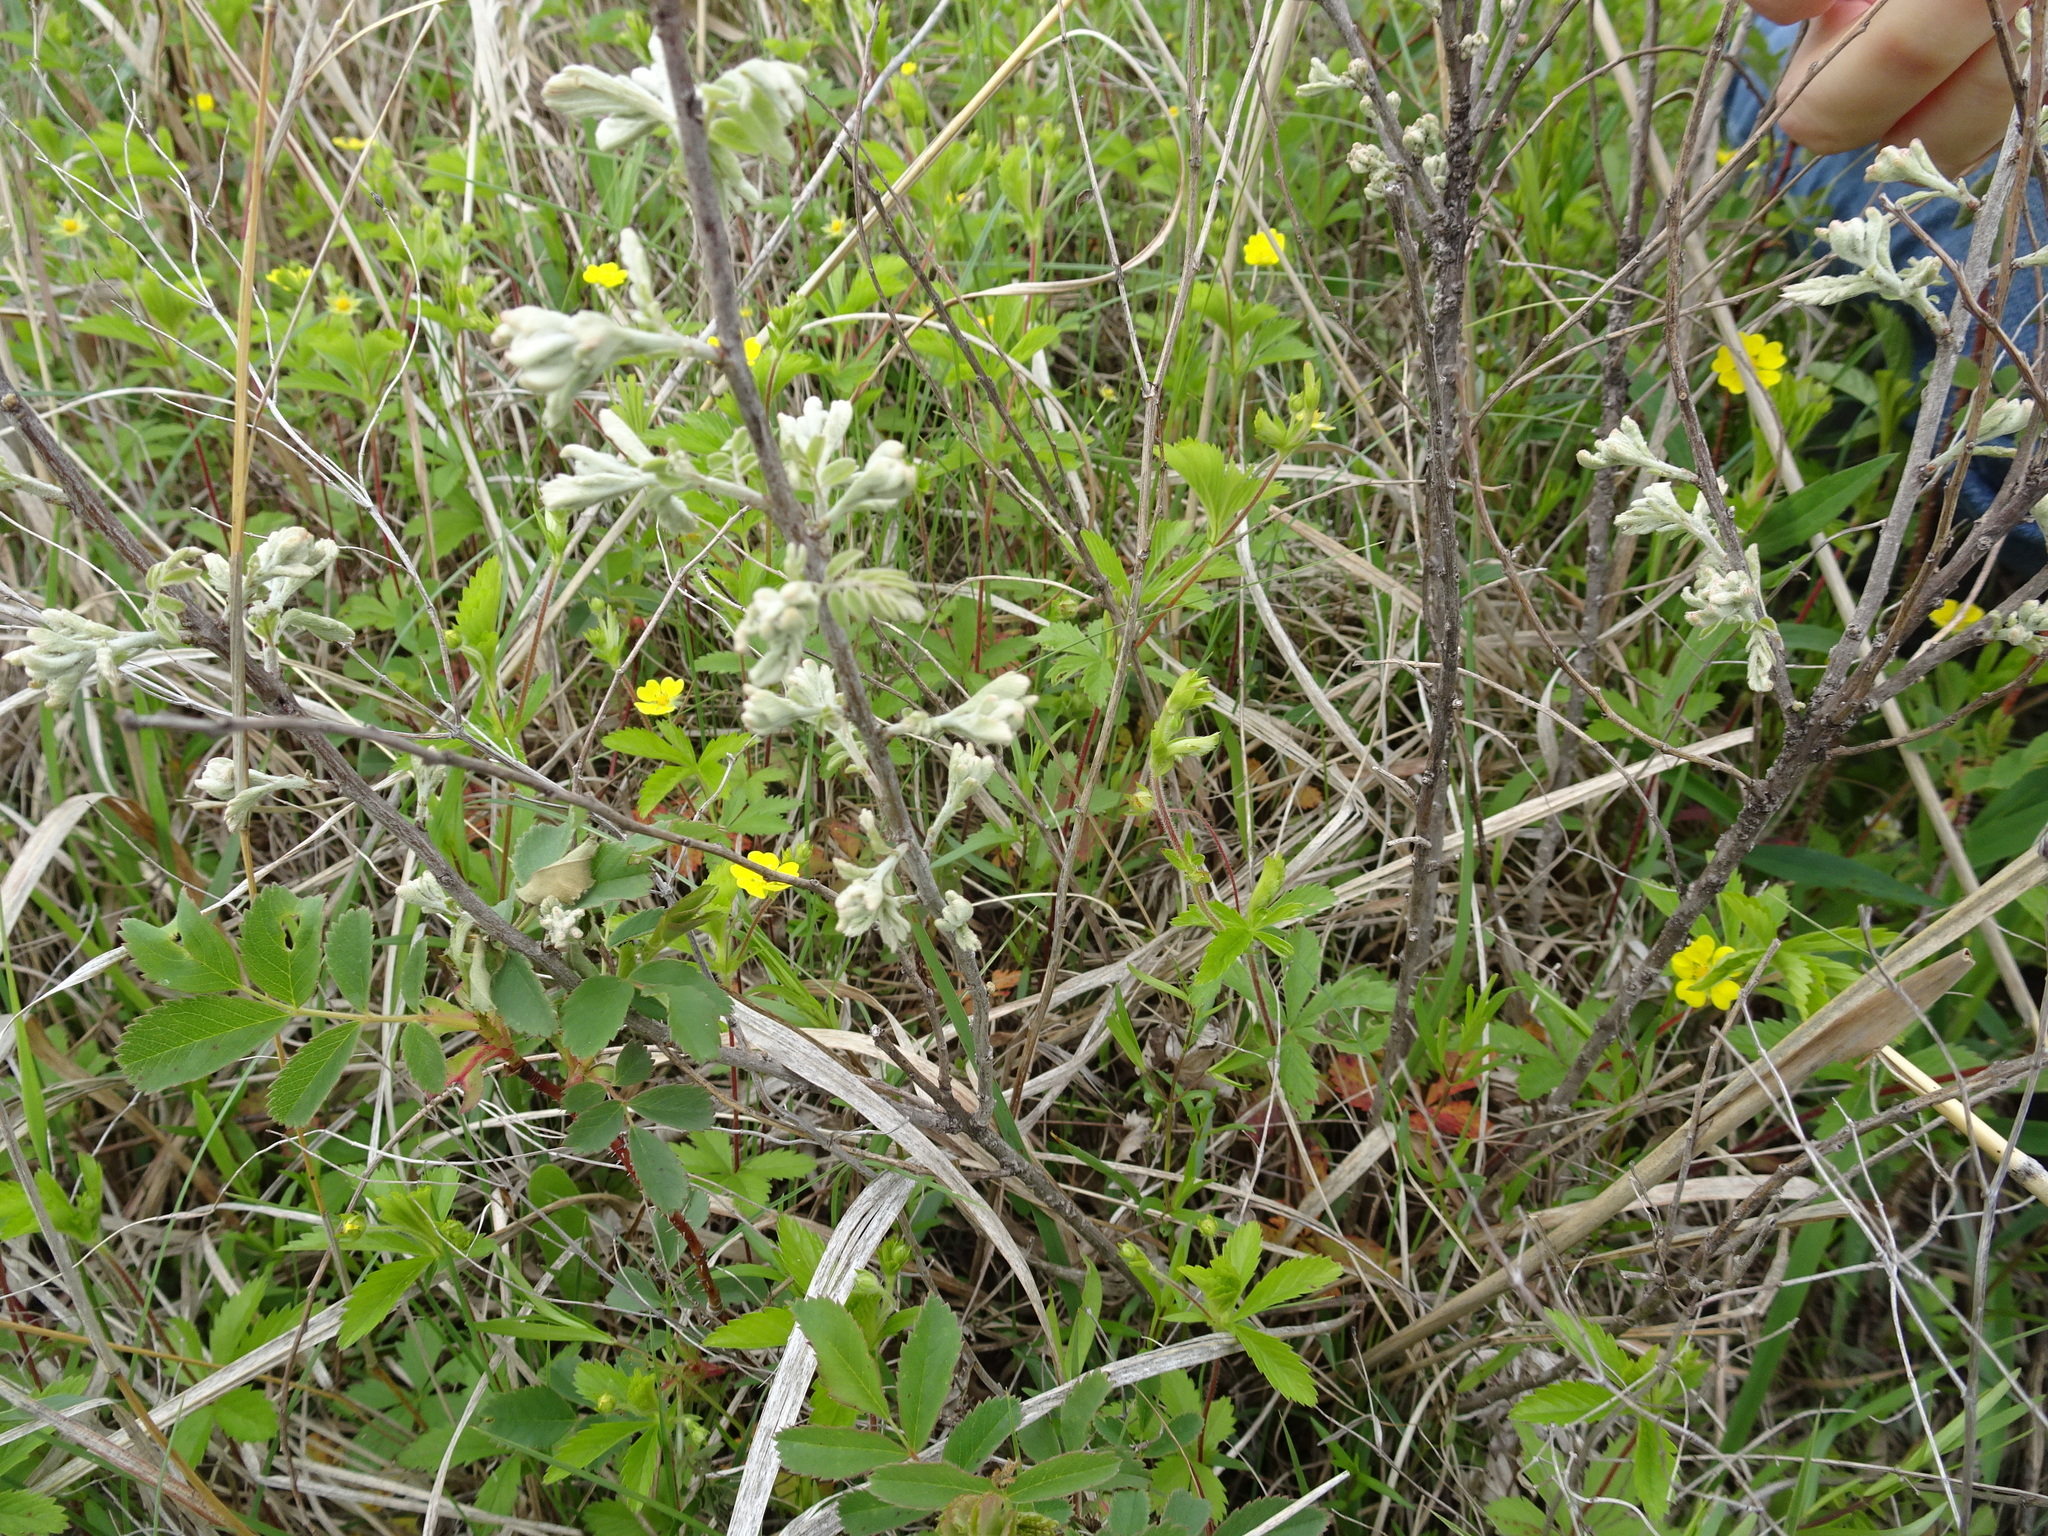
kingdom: Plantae
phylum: Tracheophyta
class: Magnoliopsida
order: Fabales
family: Fabaceae
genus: Amorpha
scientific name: Amorpha canescens
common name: Leadplant
